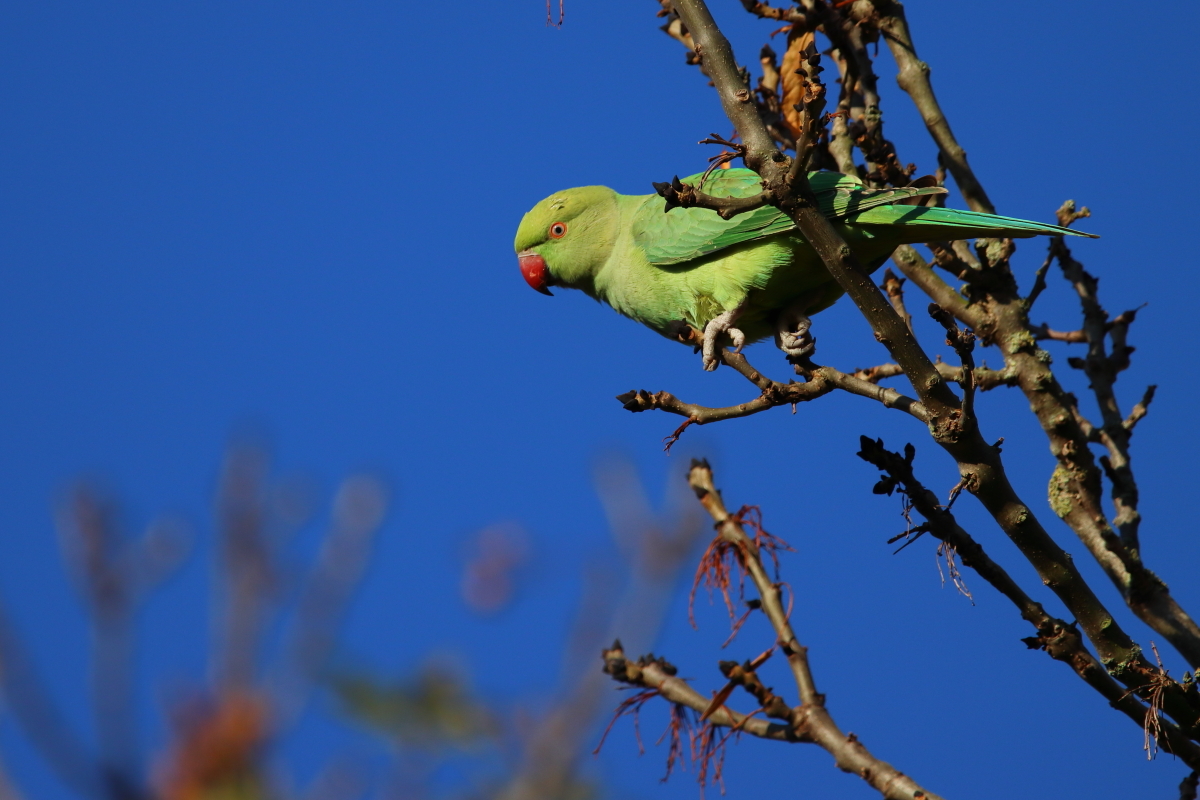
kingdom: Animalia
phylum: Chordata
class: Aves
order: Psittaciformes
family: Psittacidae
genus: Psittacula
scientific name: Psittacula krameri
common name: Rose-ringed parakeet
